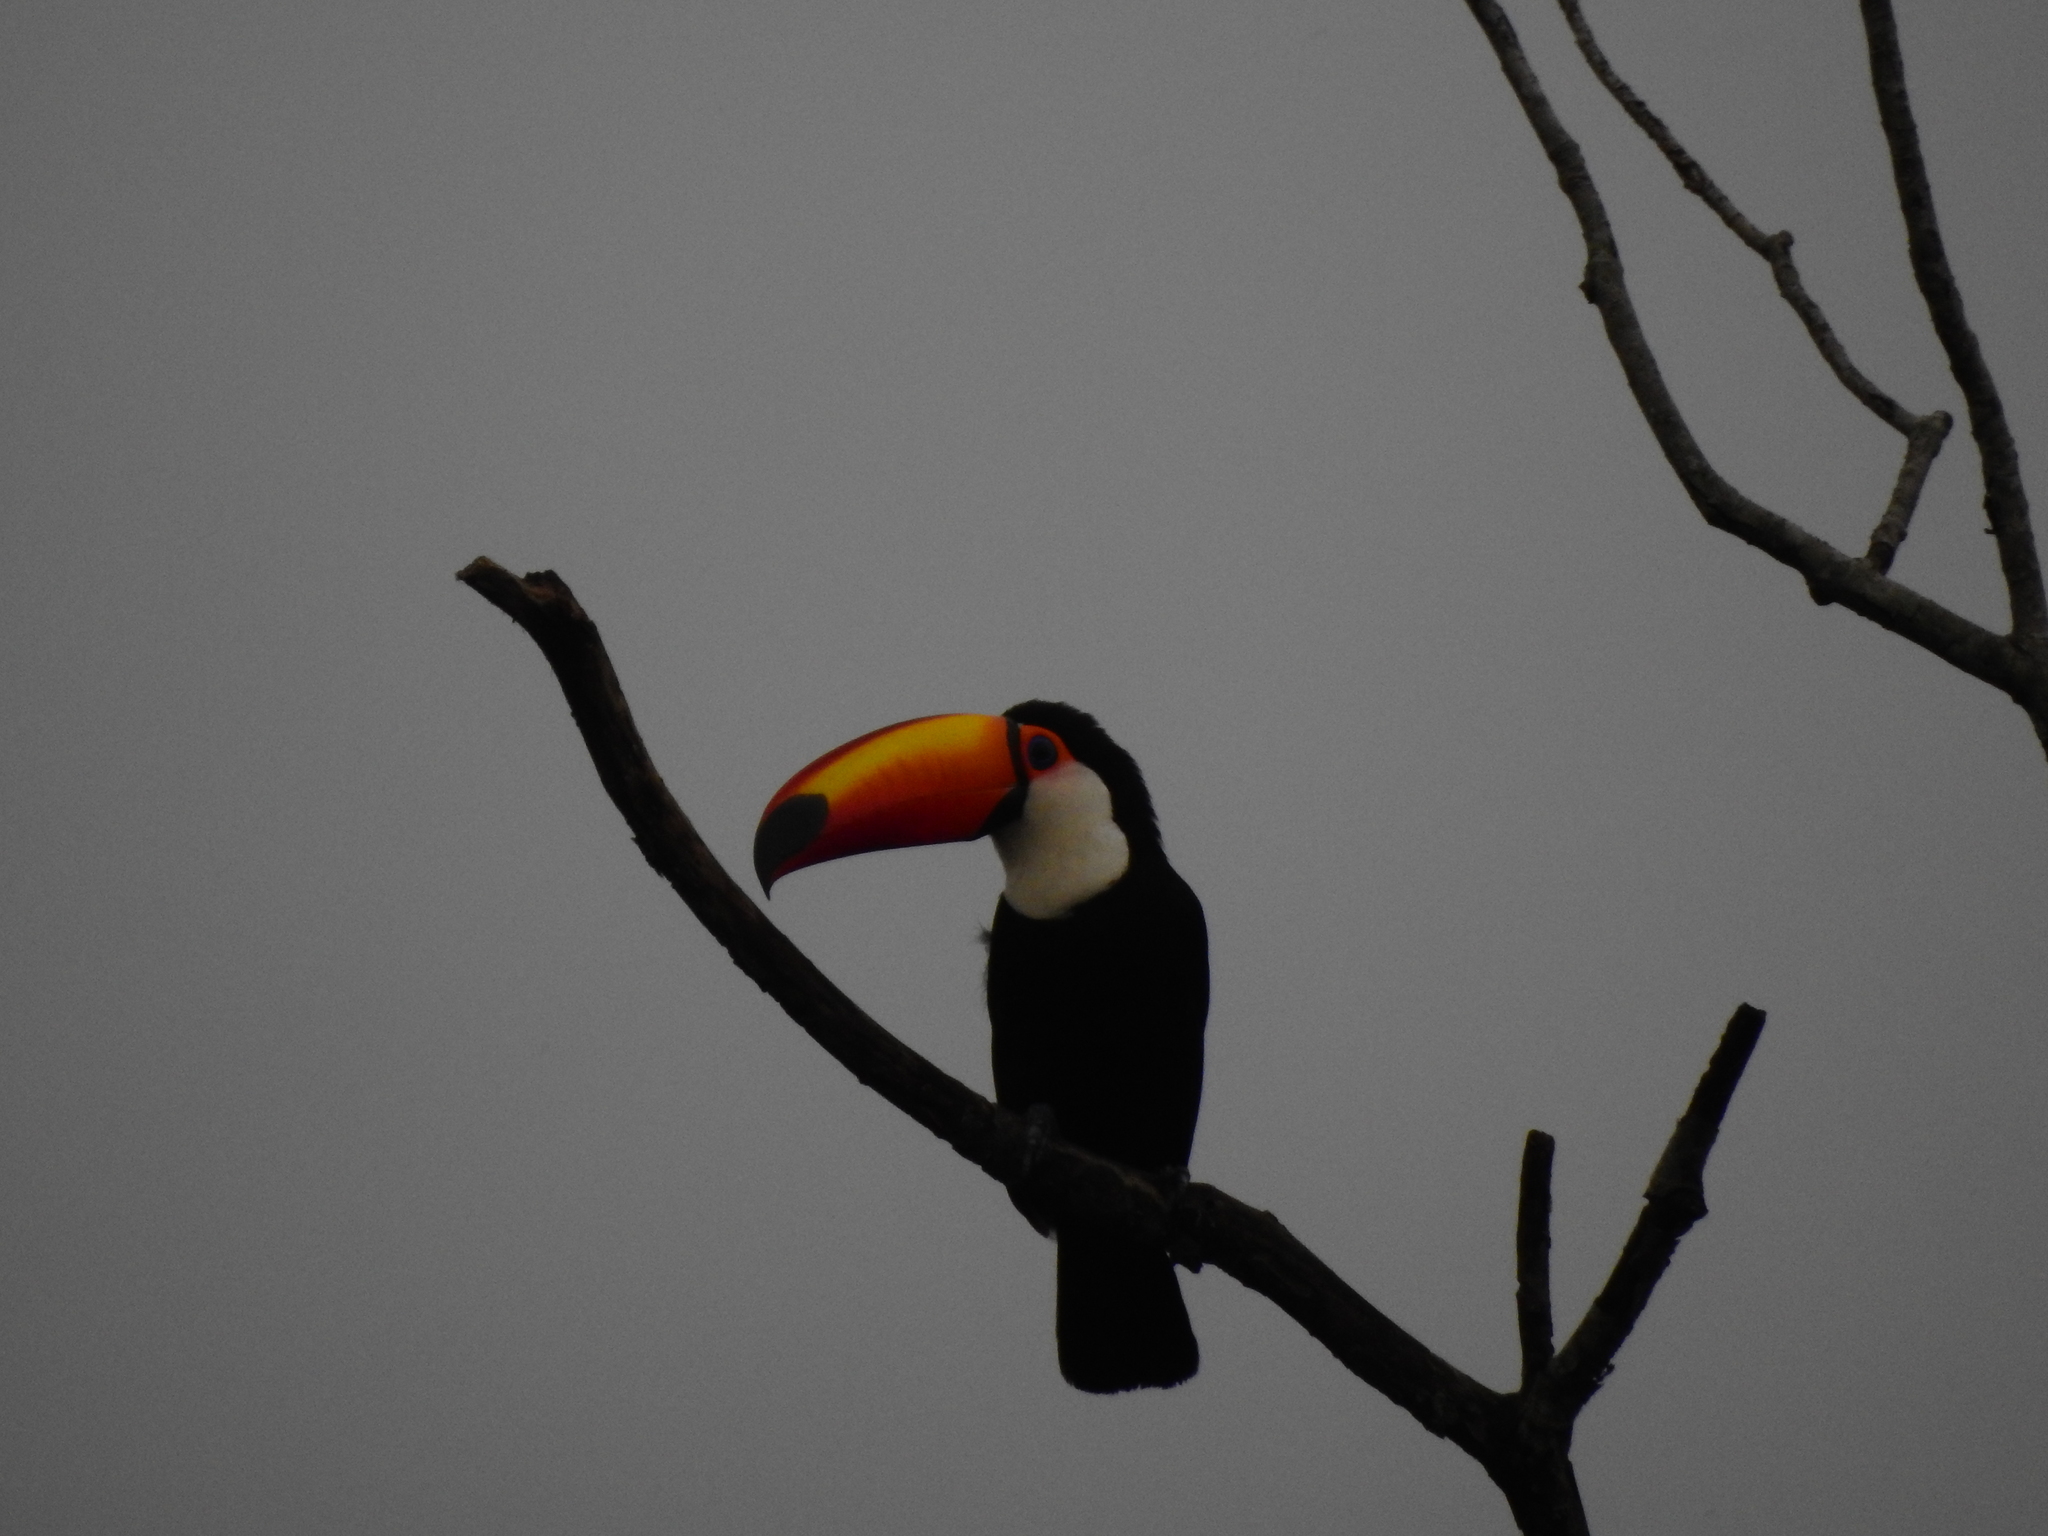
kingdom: Animalia
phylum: Chordata
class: Aves
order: Piciformes
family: Ramphastidae
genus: Ramphastos
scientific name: Ramphastos toco
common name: Toco toucan
